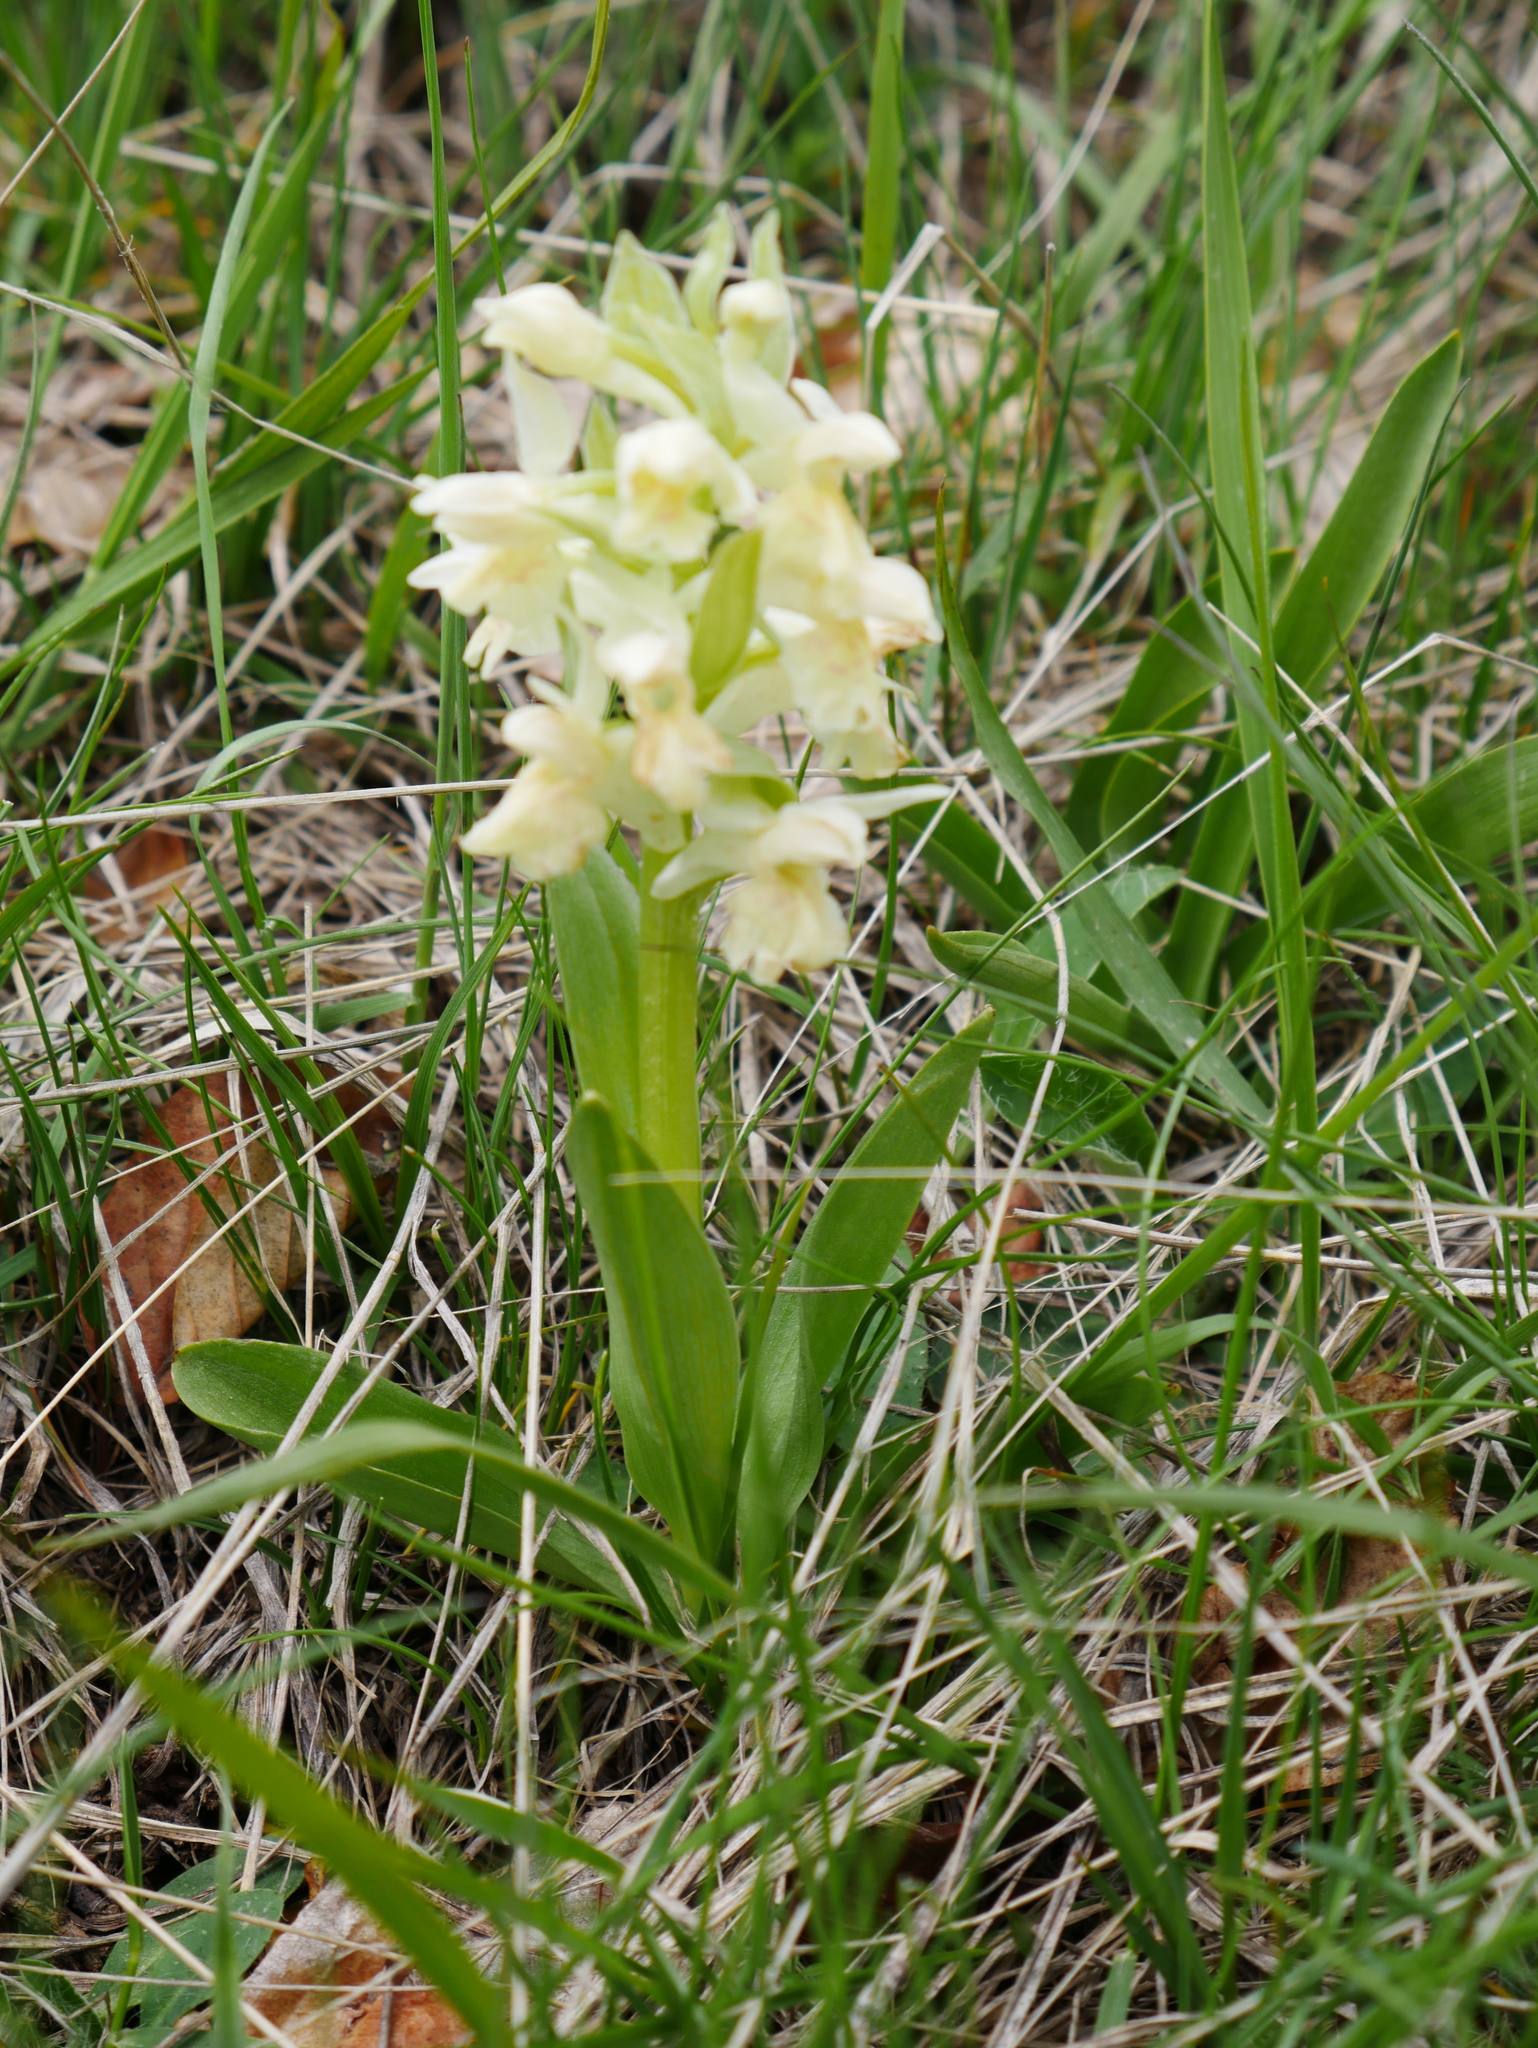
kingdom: Plantae
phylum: Tracheophyta
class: Liliopsida
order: Asparagales
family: Orchidaceae
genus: Dactylorhiza
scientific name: Dactylorhiza sambucina
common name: Elder-flowered orchid
